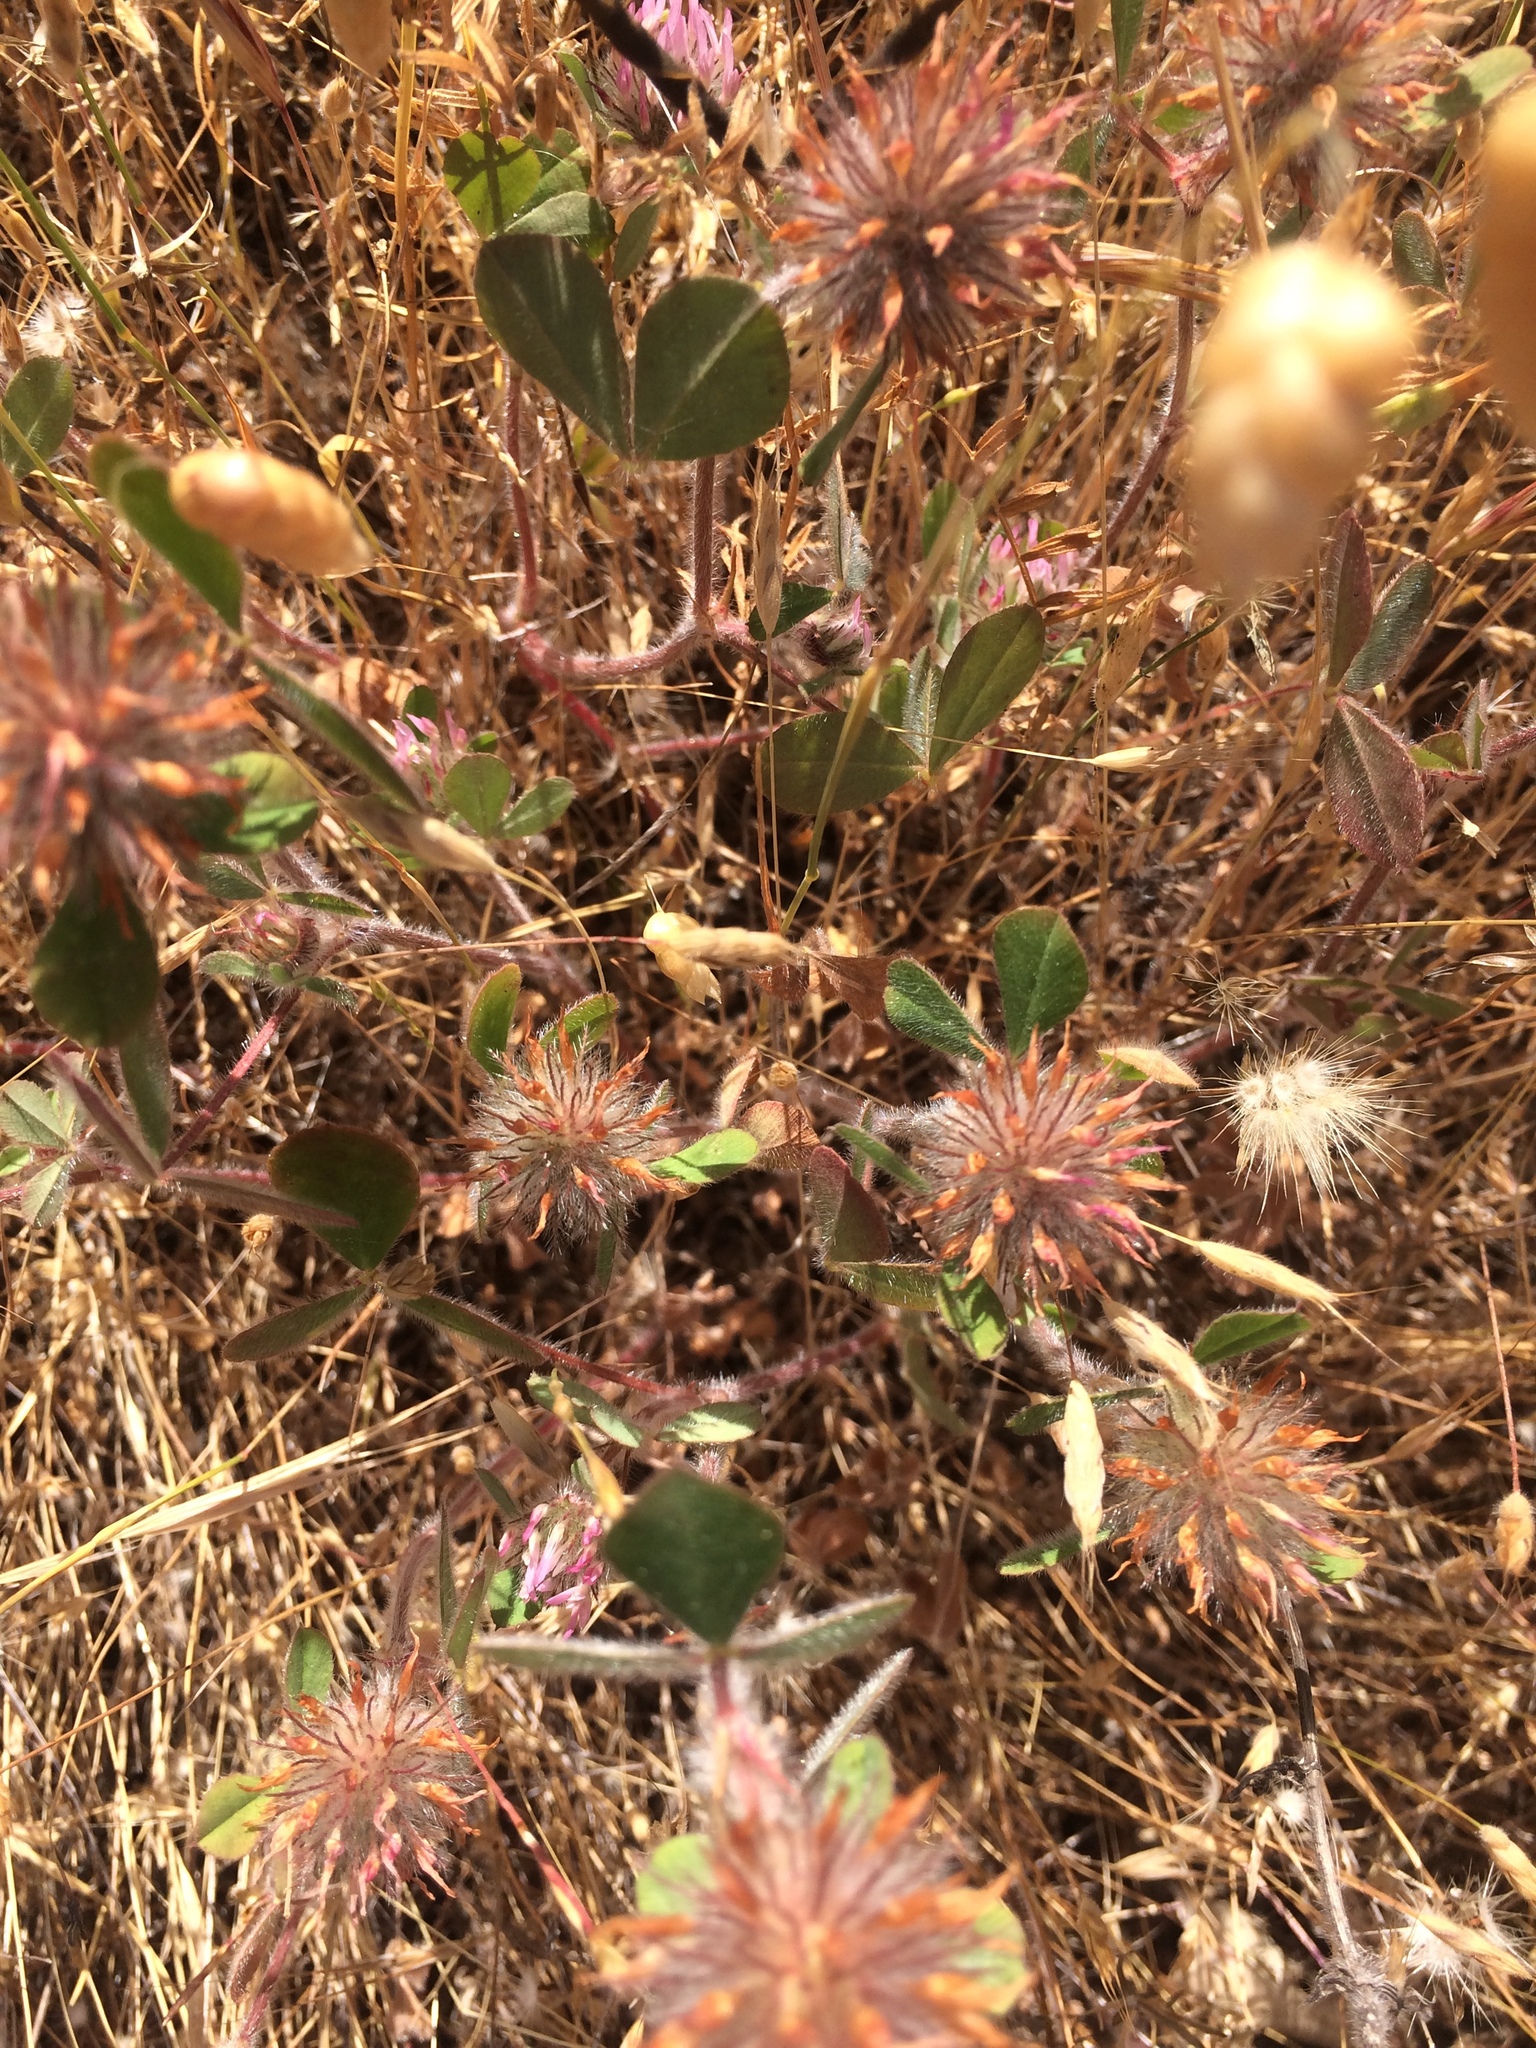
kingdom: Plantae
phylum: Tracheophyta
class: Magnoliopsida
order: Fabales
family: Fabaceae
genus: Trifolium
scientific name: Trifolium hirtum
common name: Rose clover
